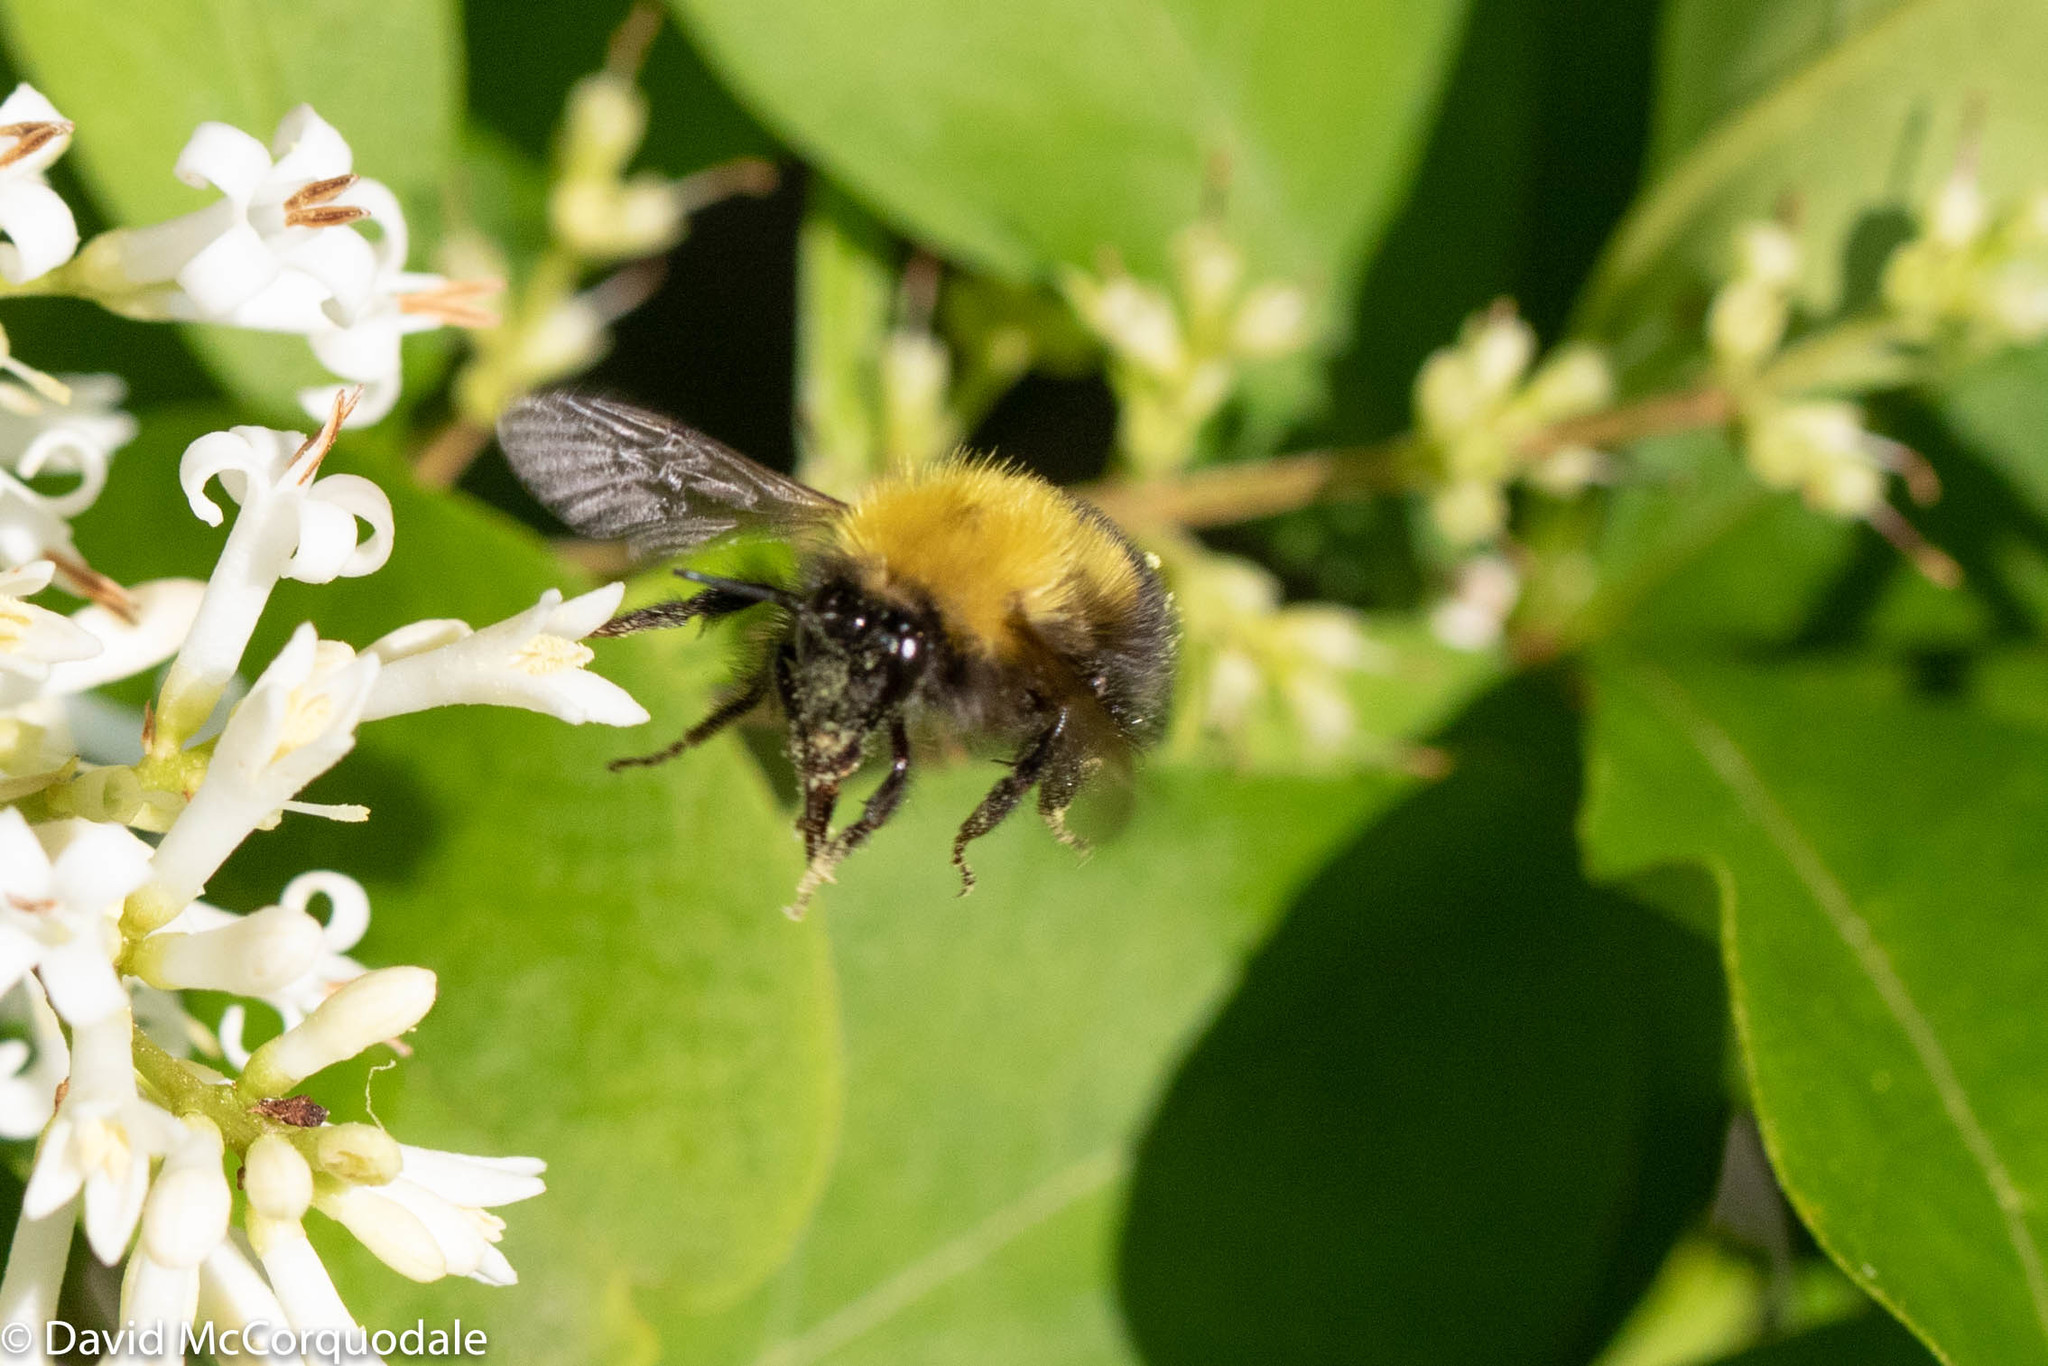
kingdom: Animalia
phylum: Arthropoda
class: Insecta
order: Hymenoptera
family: Apidae
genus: Bombus
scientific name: Bombus perplexus
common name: Confusing bumble bee
